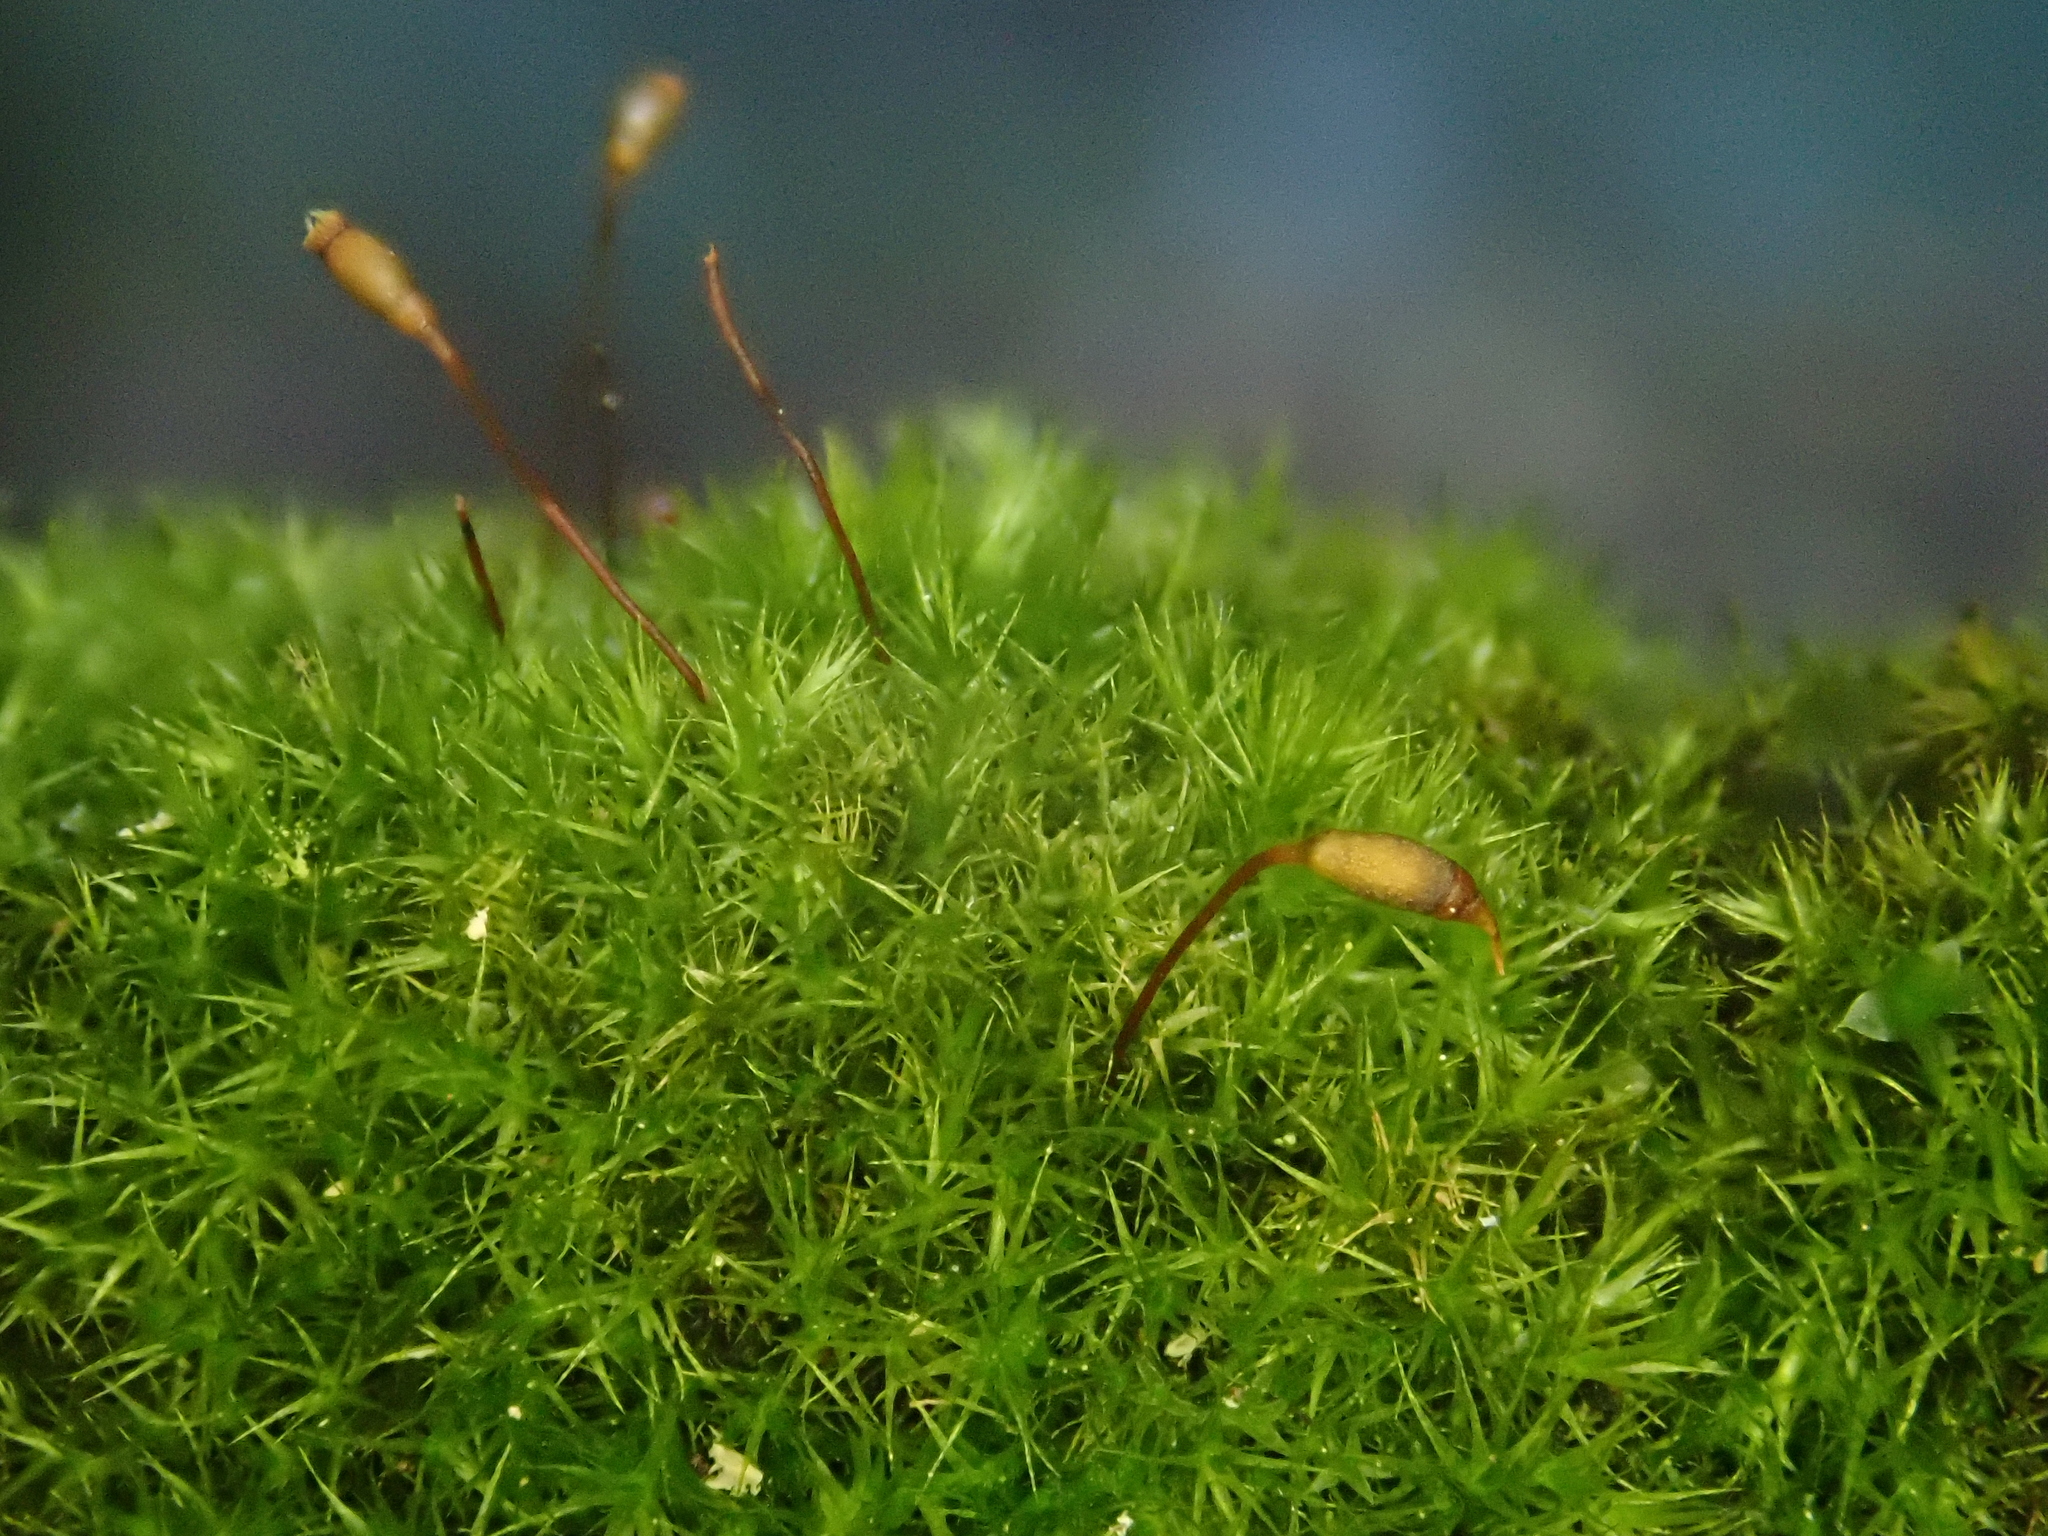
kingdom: Plantae
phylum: Bryophyta
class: Bryopsida
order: Hypnales
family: Brachytheciaceae
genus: Rhynchostegiella
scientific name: Rhynchostegiella tenella
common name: Tender feather-moss
